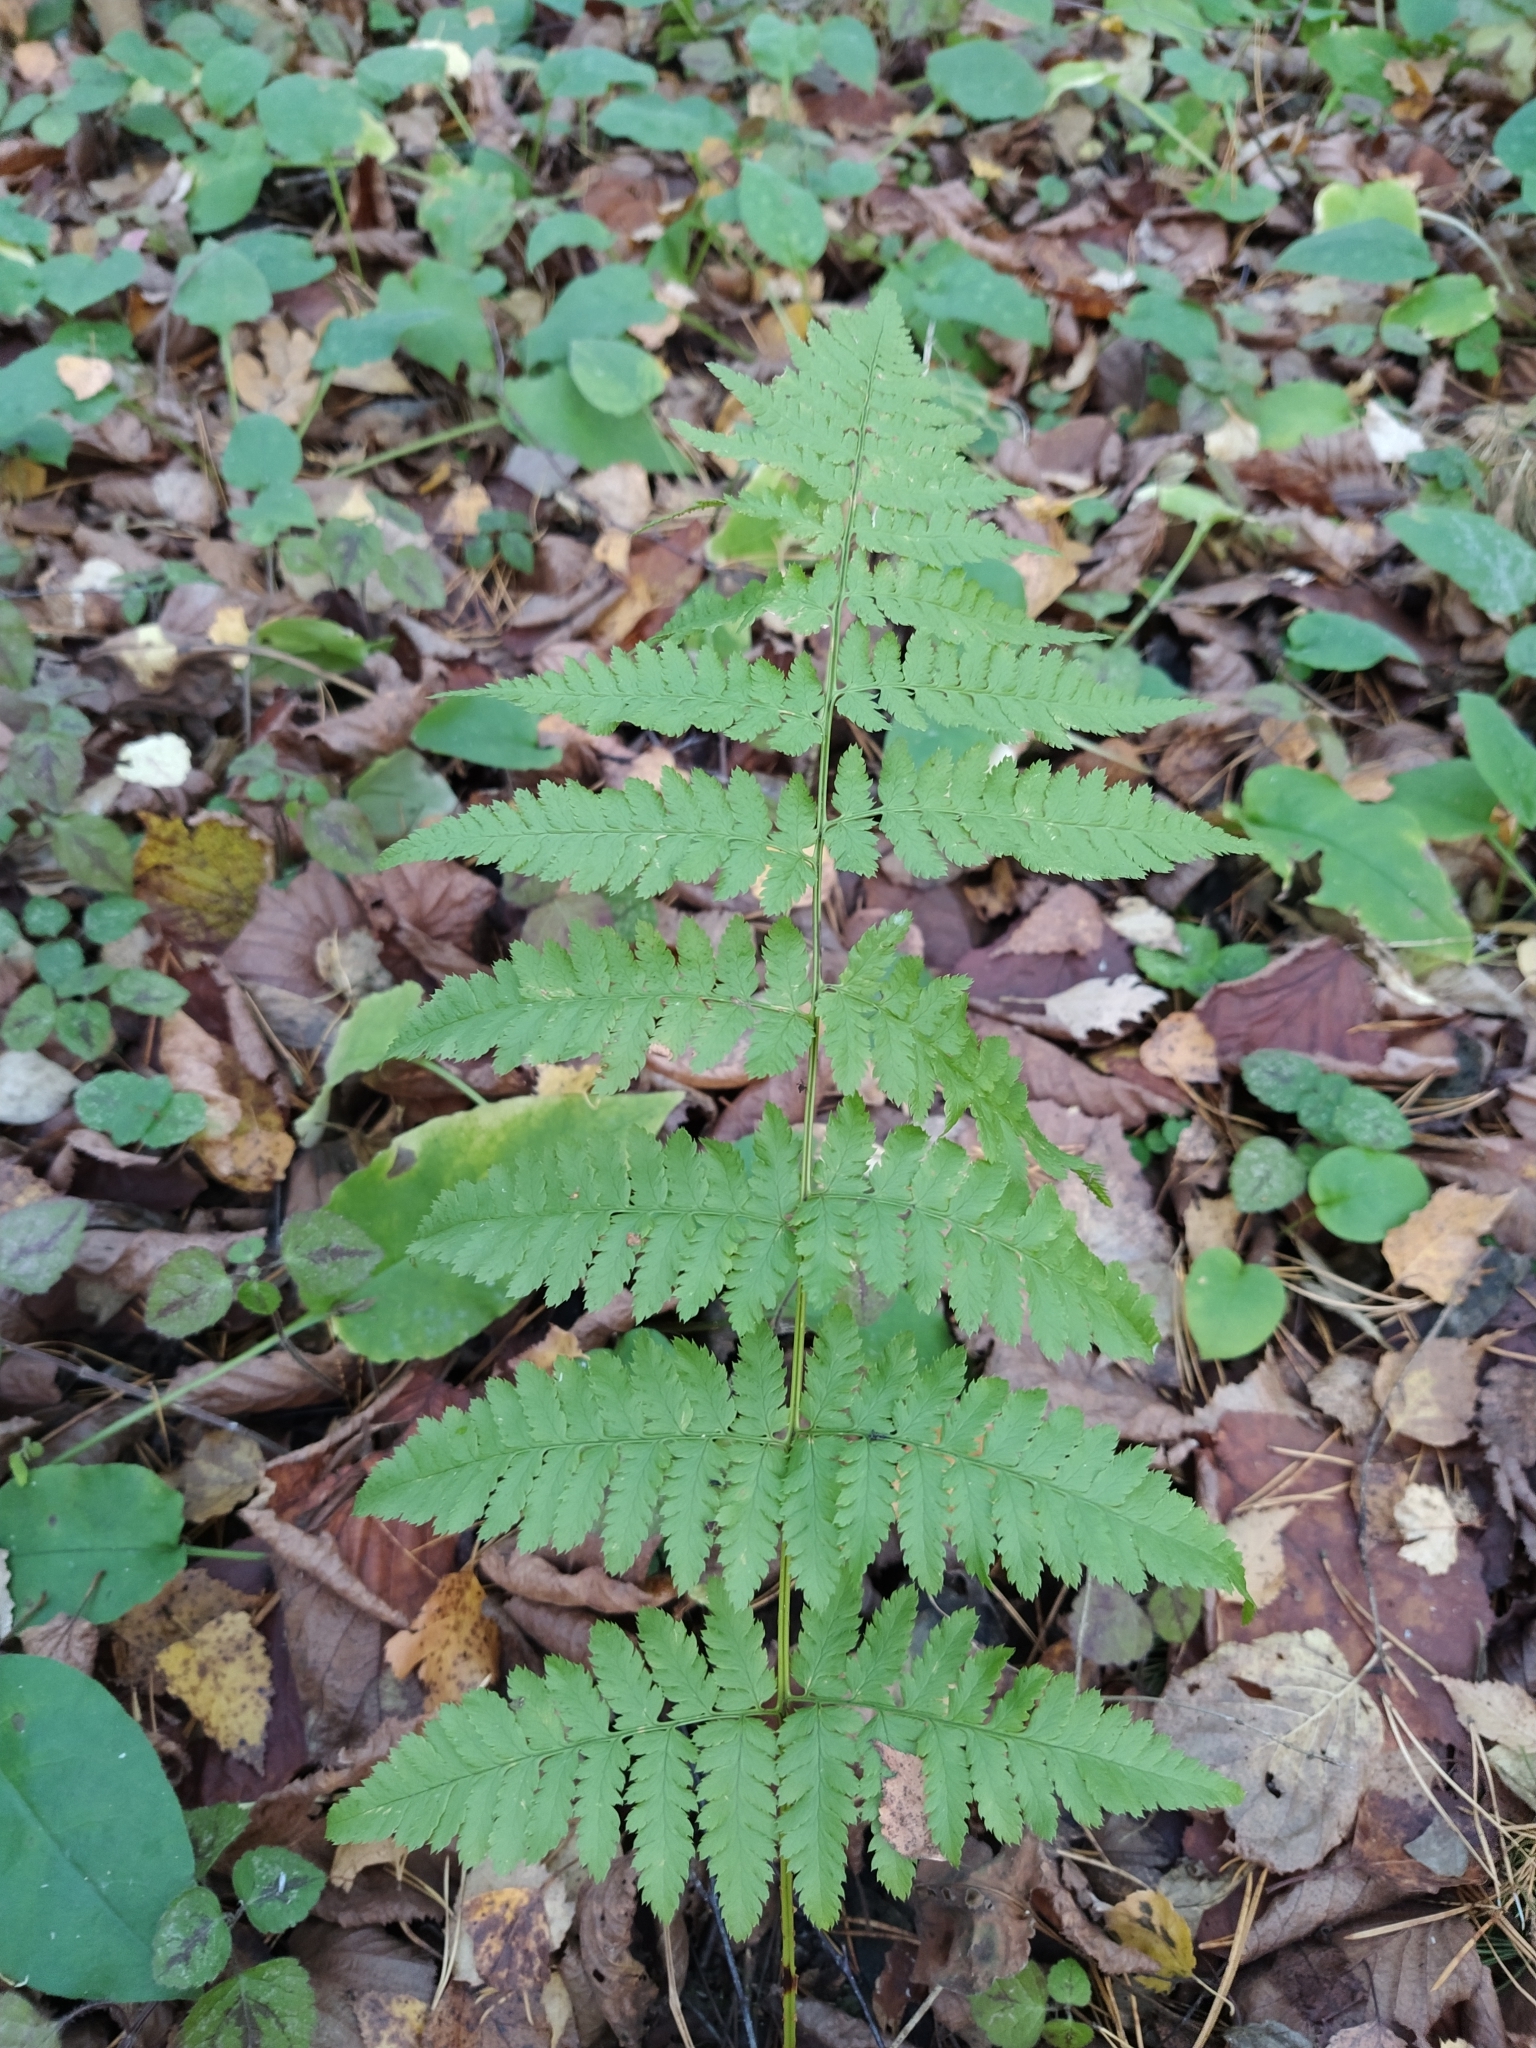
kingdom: Plantae
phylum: Tracheophyta
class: Polypodiopsida
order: Polypodiales
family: Dryopteridaceae
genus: Dryopteris
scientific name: Dryopteris carthusiana
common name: Narrow buckler-fern
